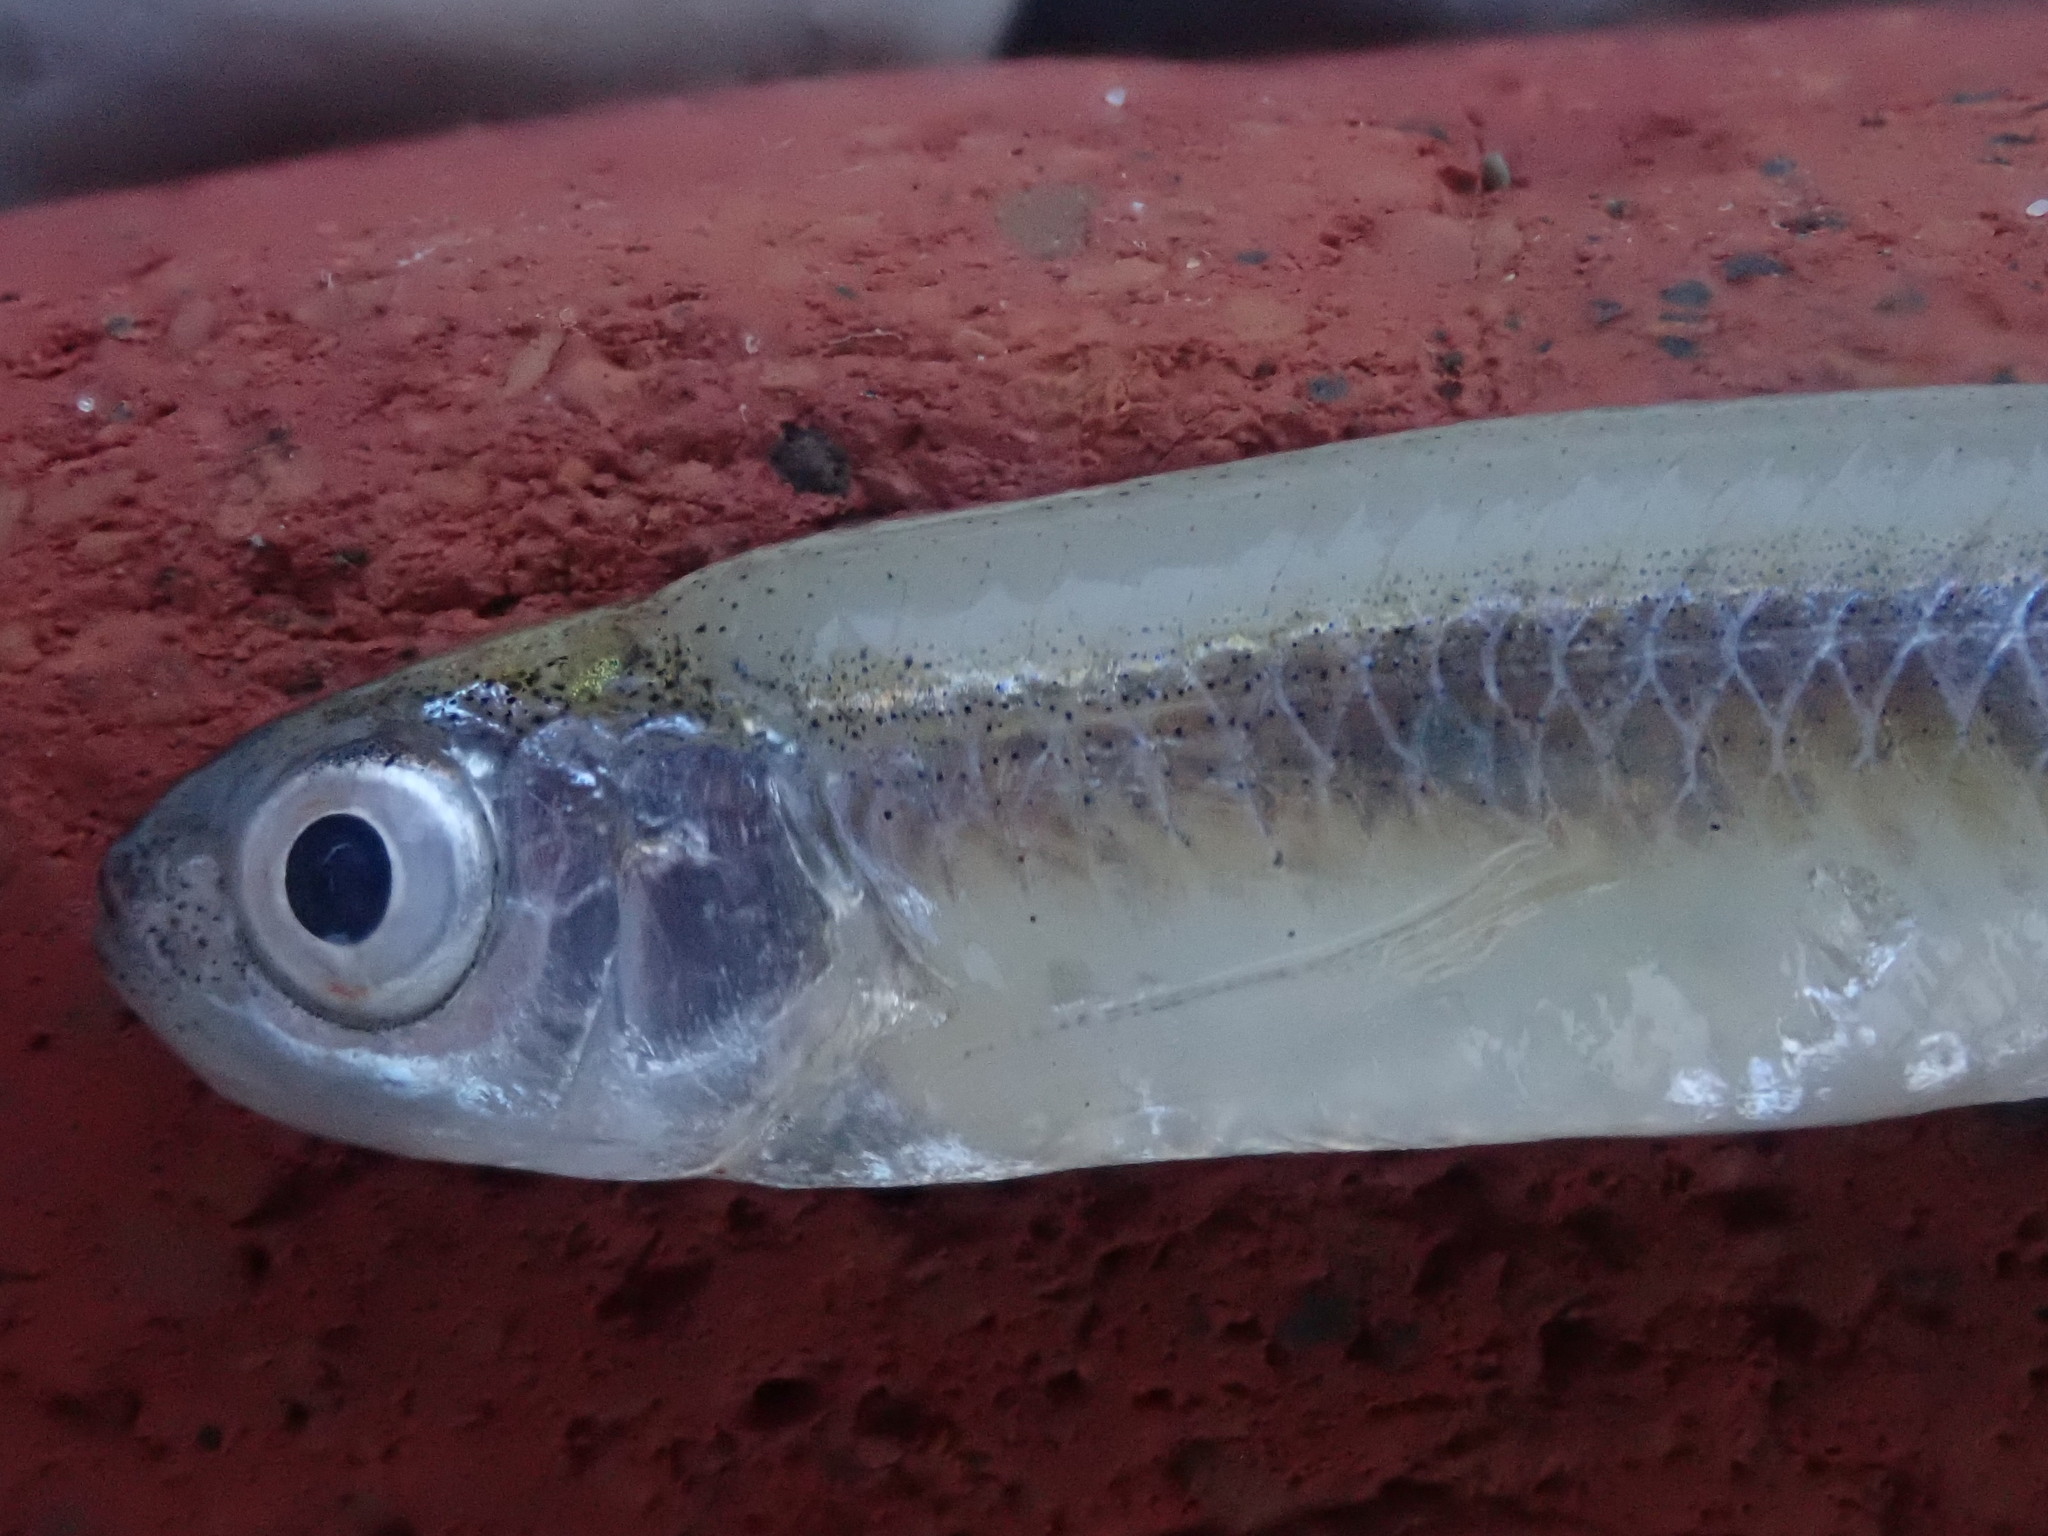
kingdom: Animalia
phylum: Chordata
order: Cypriniformes
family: Cyprinidae
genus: Notropis
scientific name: Notropis atherinoides
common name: Emerald shiner
